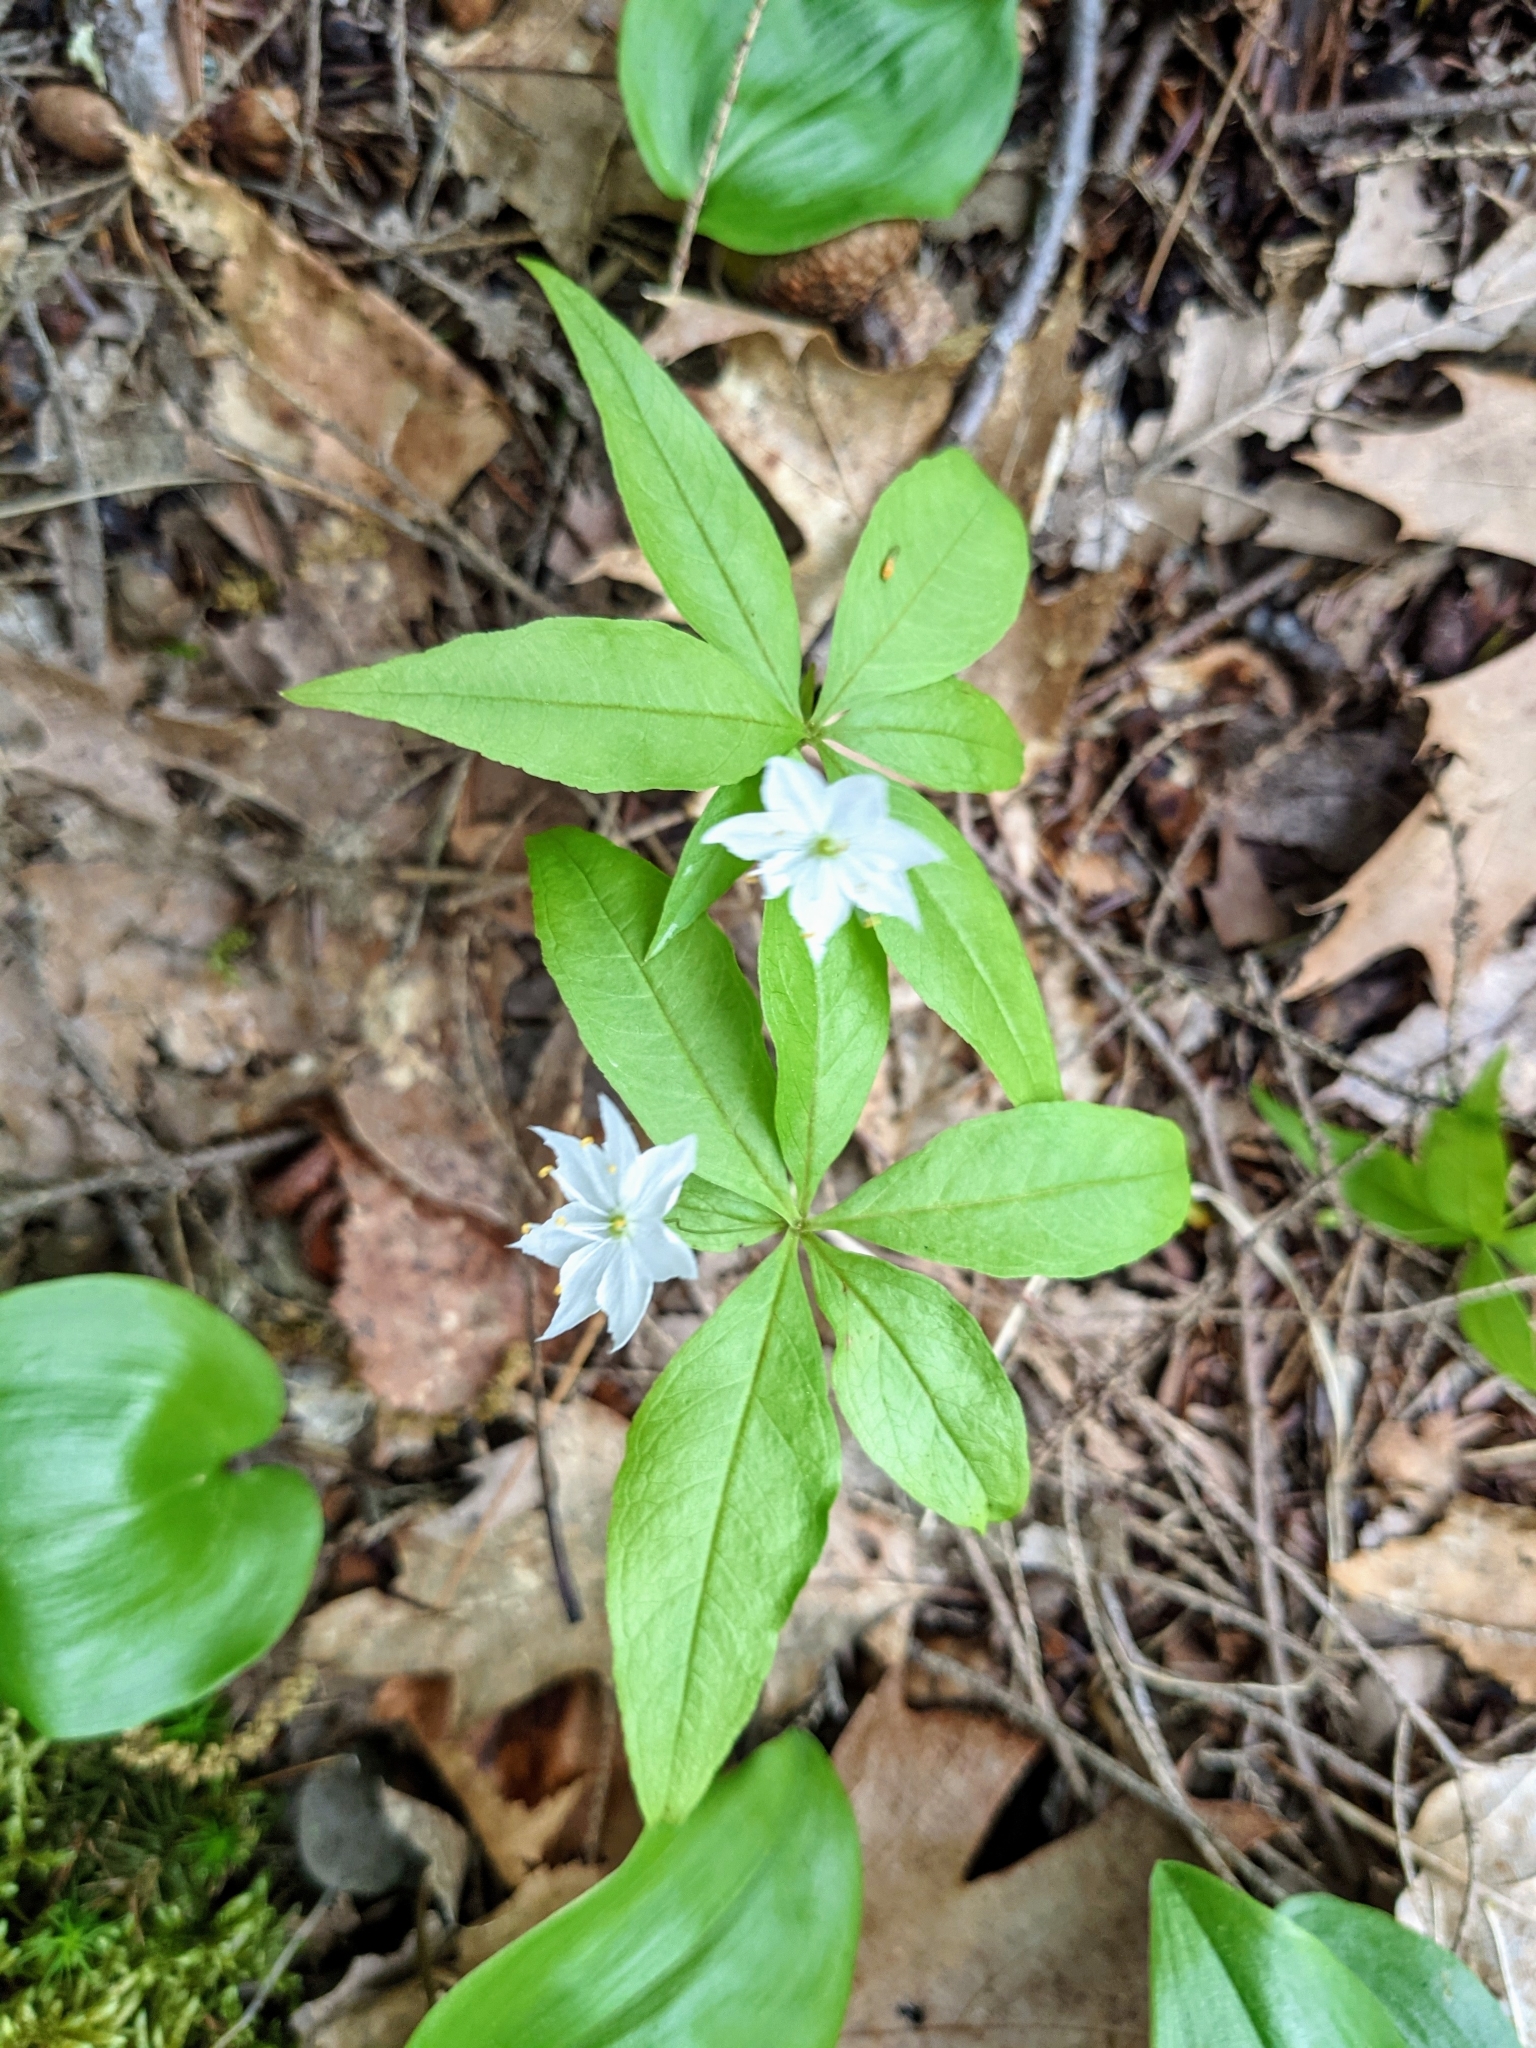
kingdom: Plantae
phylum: Tracheophyta
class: Magnoliopsida
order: Ericales
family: Primulaceae
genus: Lysimachia
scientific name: Lysimachia borealis
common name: American starflower
